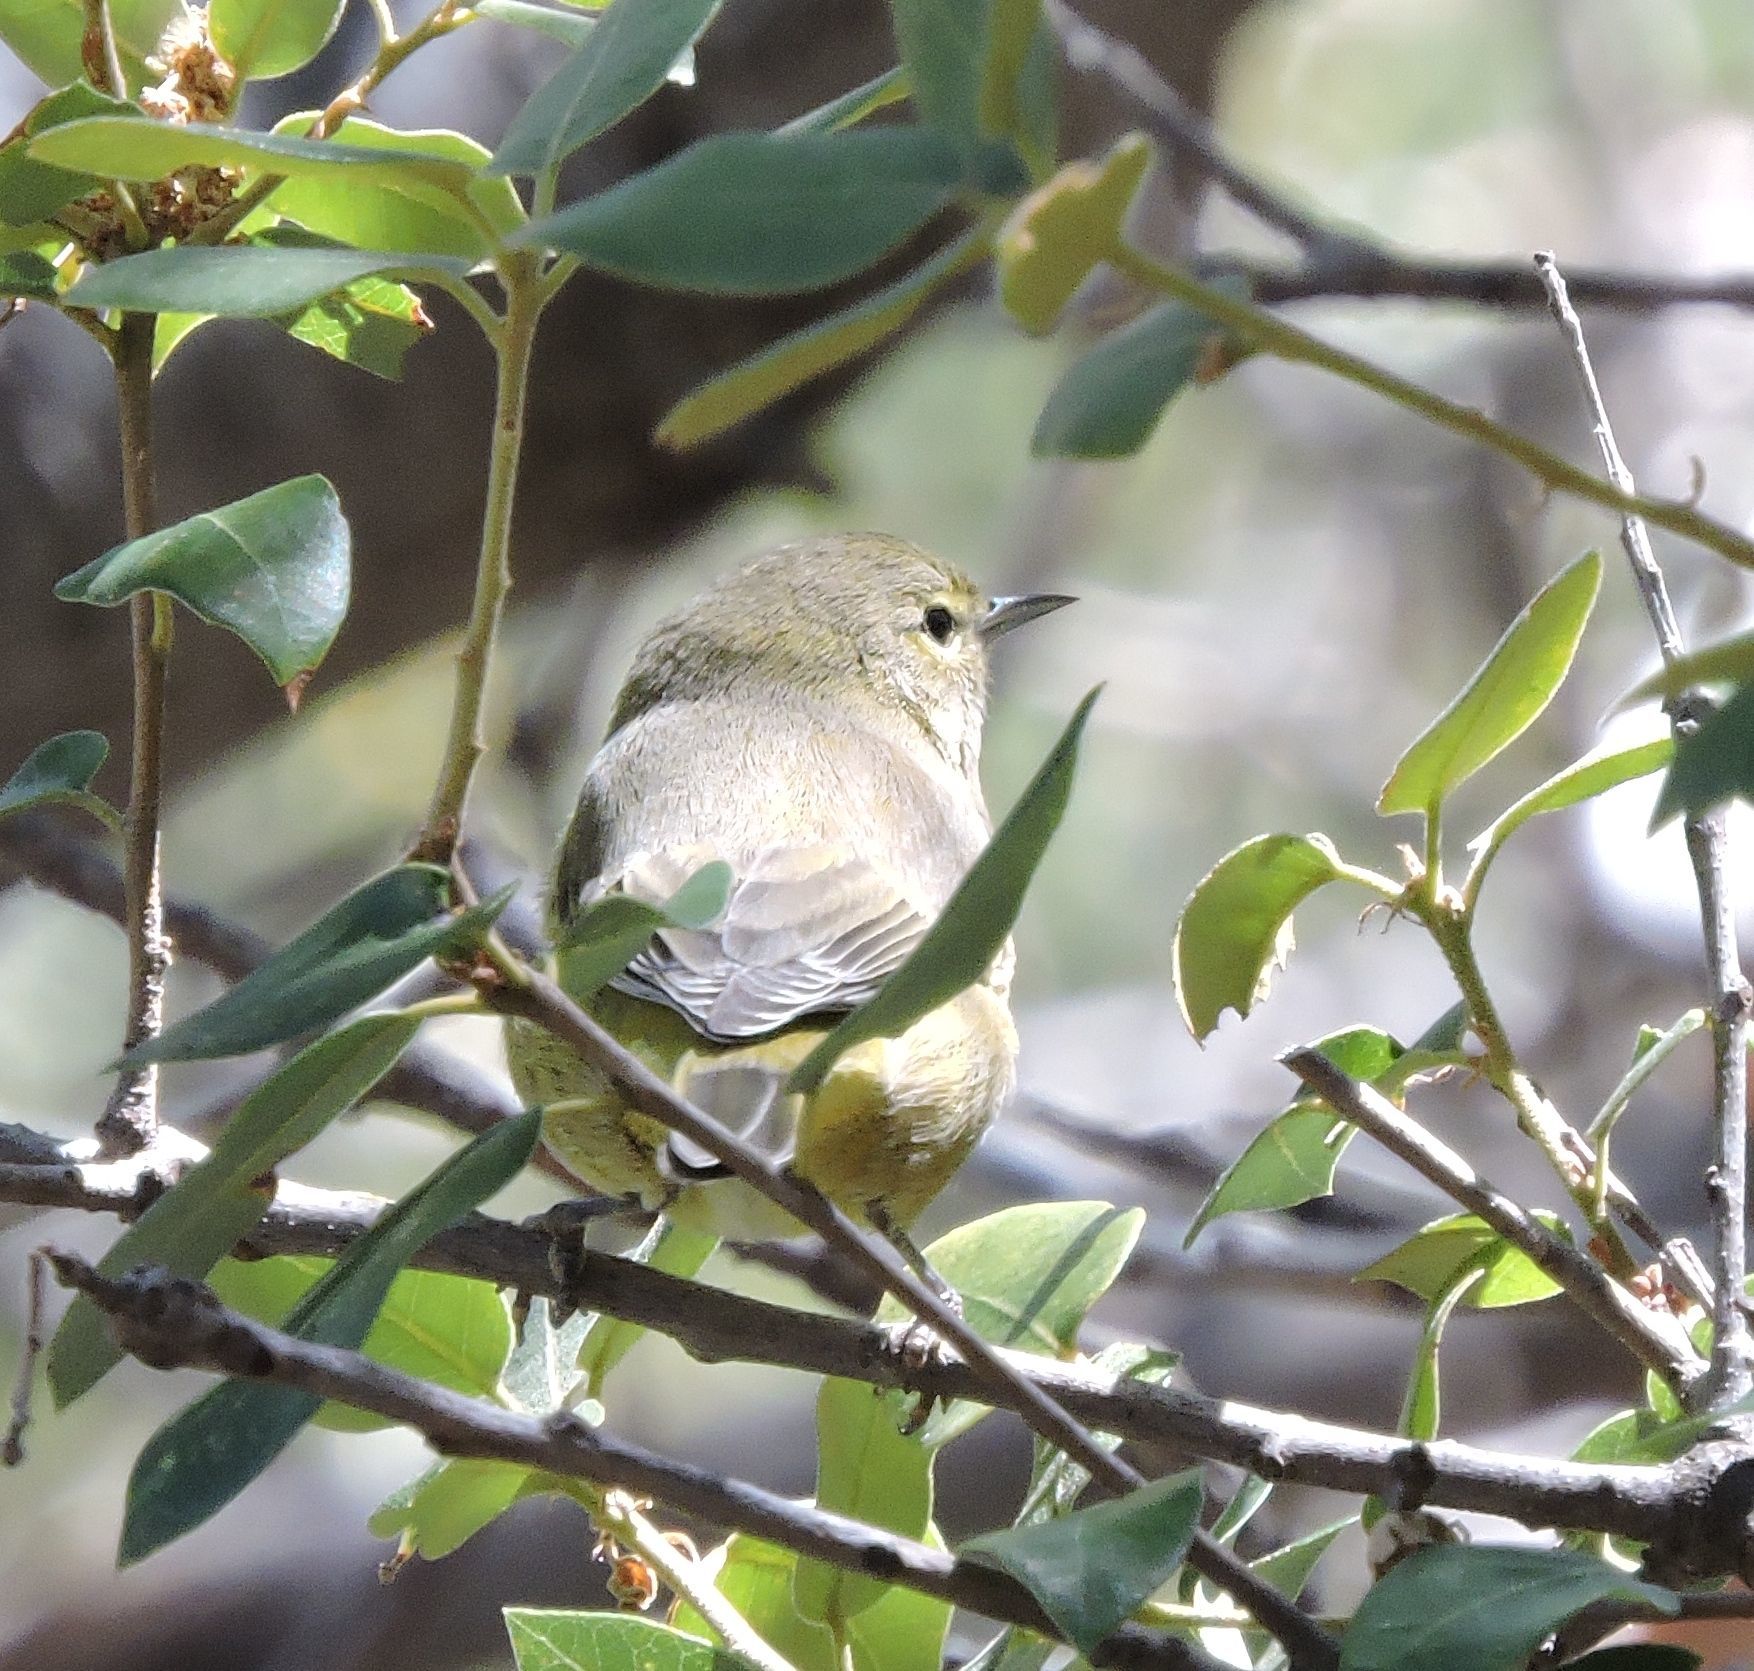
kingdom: Animalia
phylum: Chordata
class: Aves
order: Passeriformes
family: Parulidae
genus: Leiothlypis
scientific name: Leiothlypis celata
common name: Orange-crowned warbler
